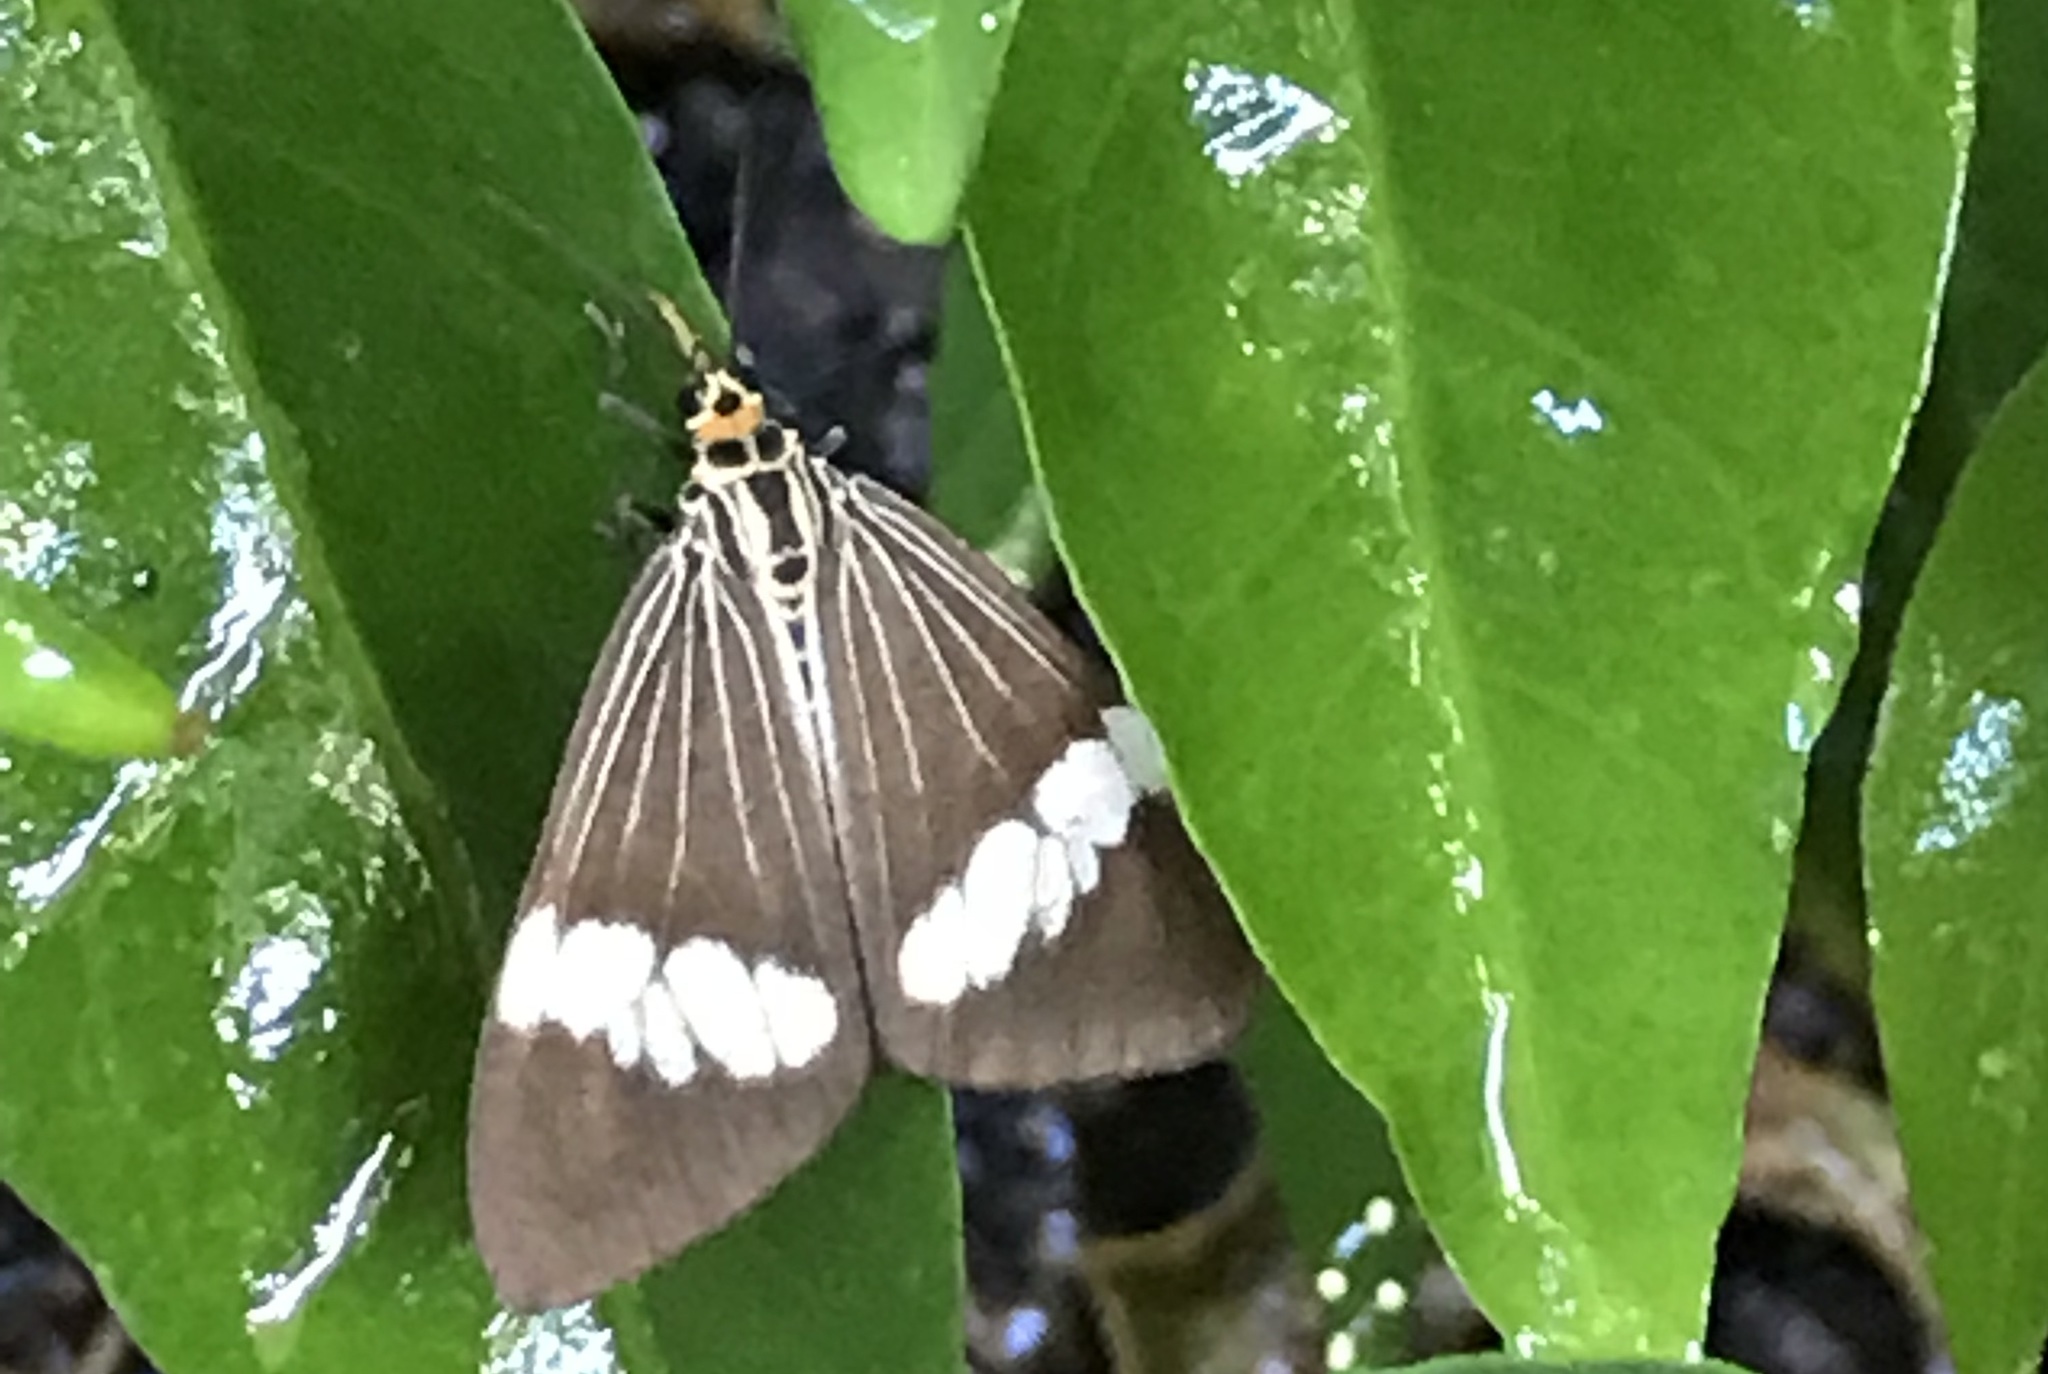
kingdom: Animalia
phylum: Arthropoda
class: Insecta
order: Lepidoptera
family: Erebidae
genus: Nyctemera
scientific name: Nyctemera baulus
